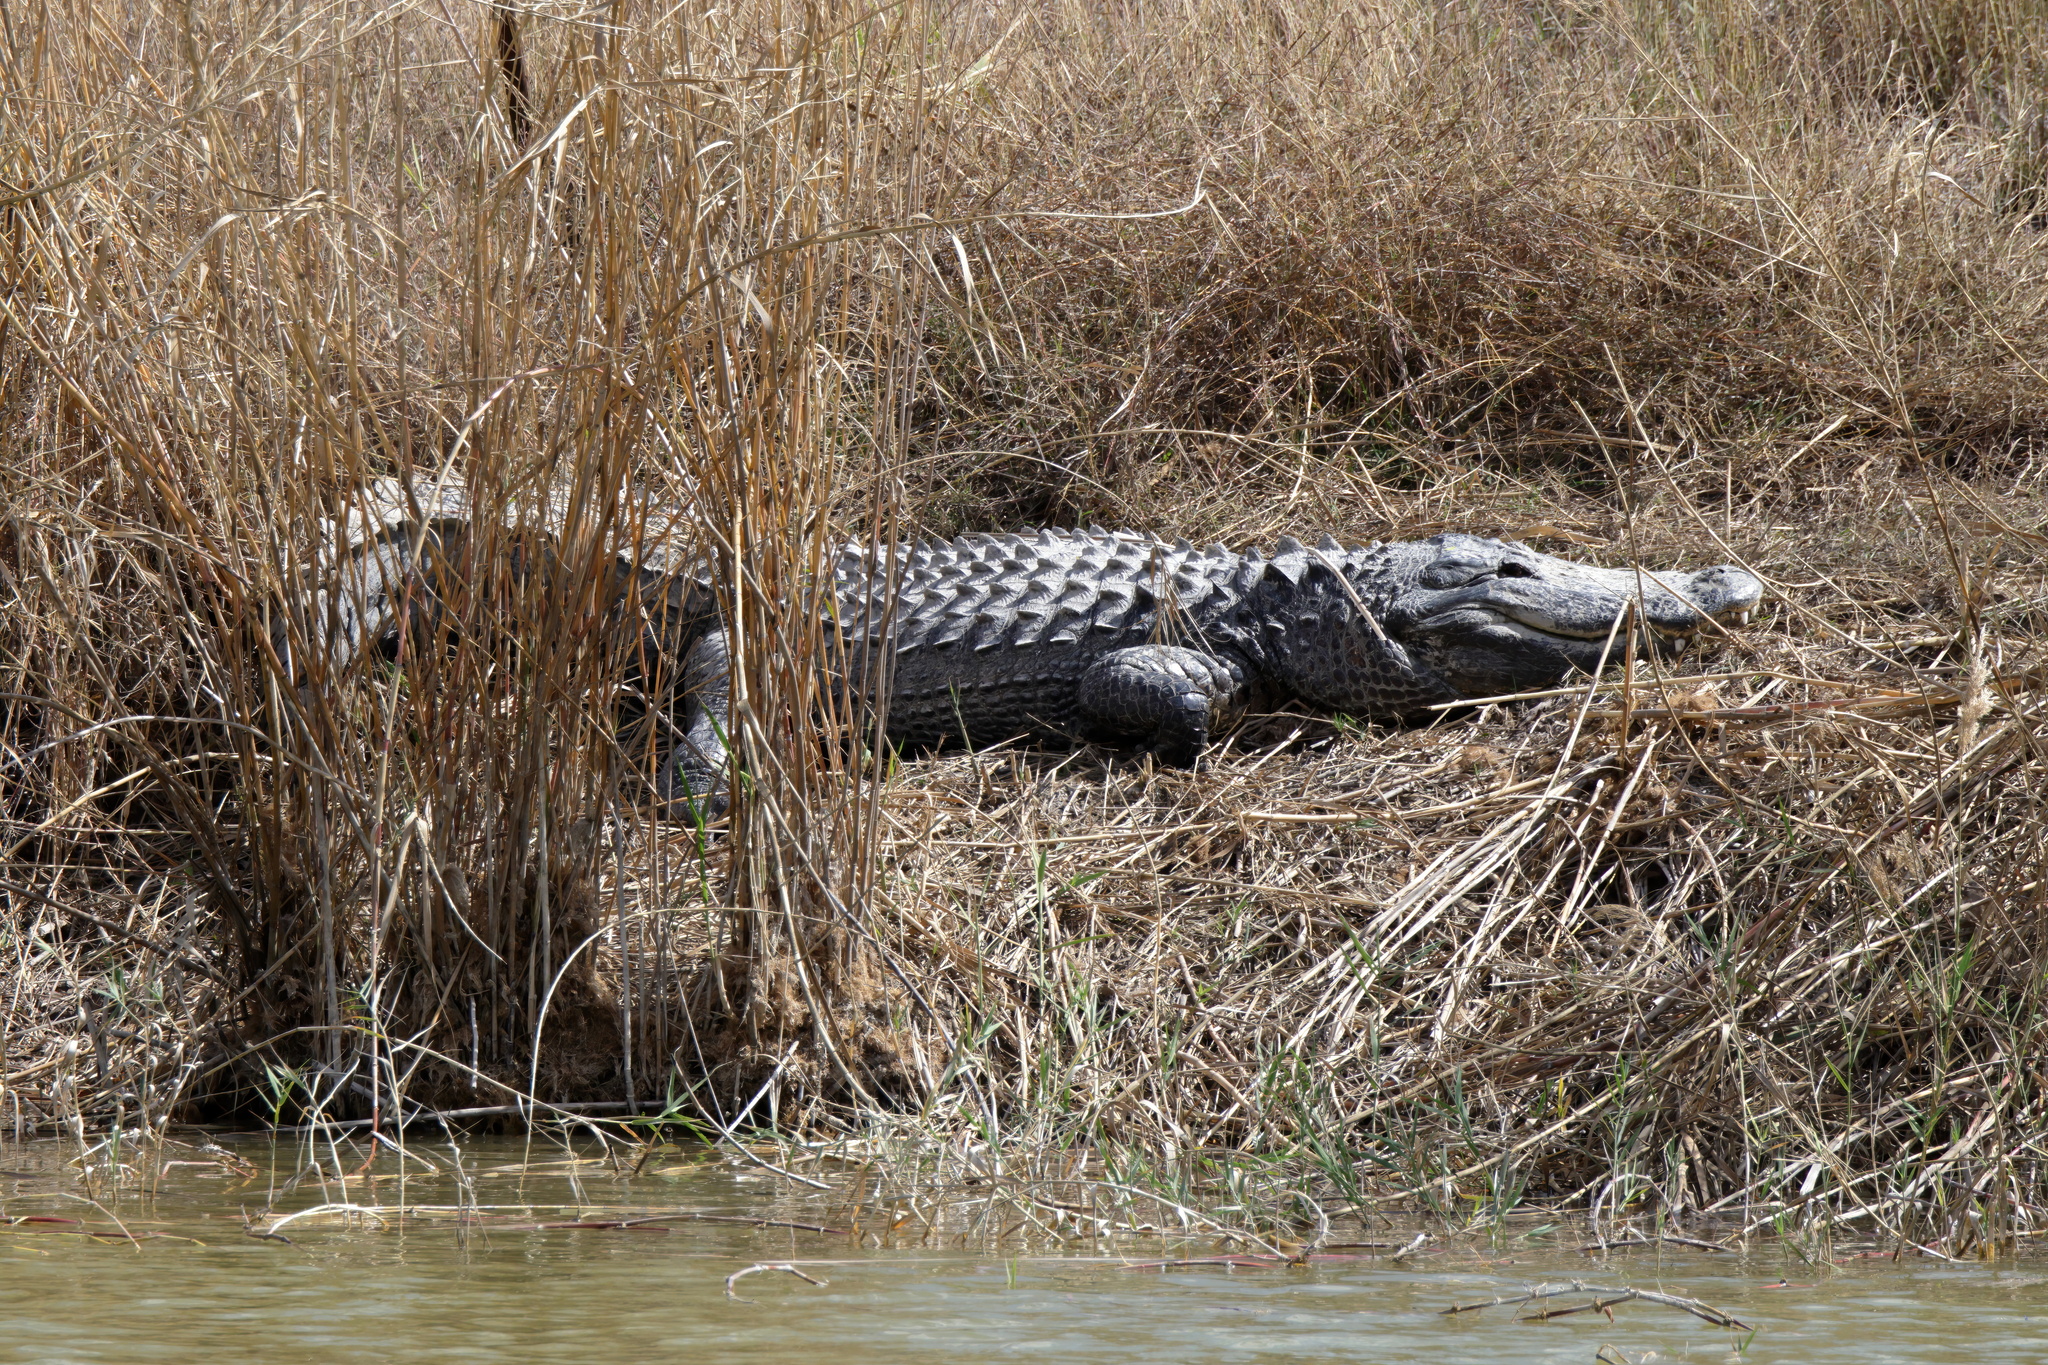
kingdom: Animalia
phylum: Chordata
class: Crocodylia
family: Alligatoridae
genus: Alligator
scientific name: Alligator mississippiensis
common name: American alligator
